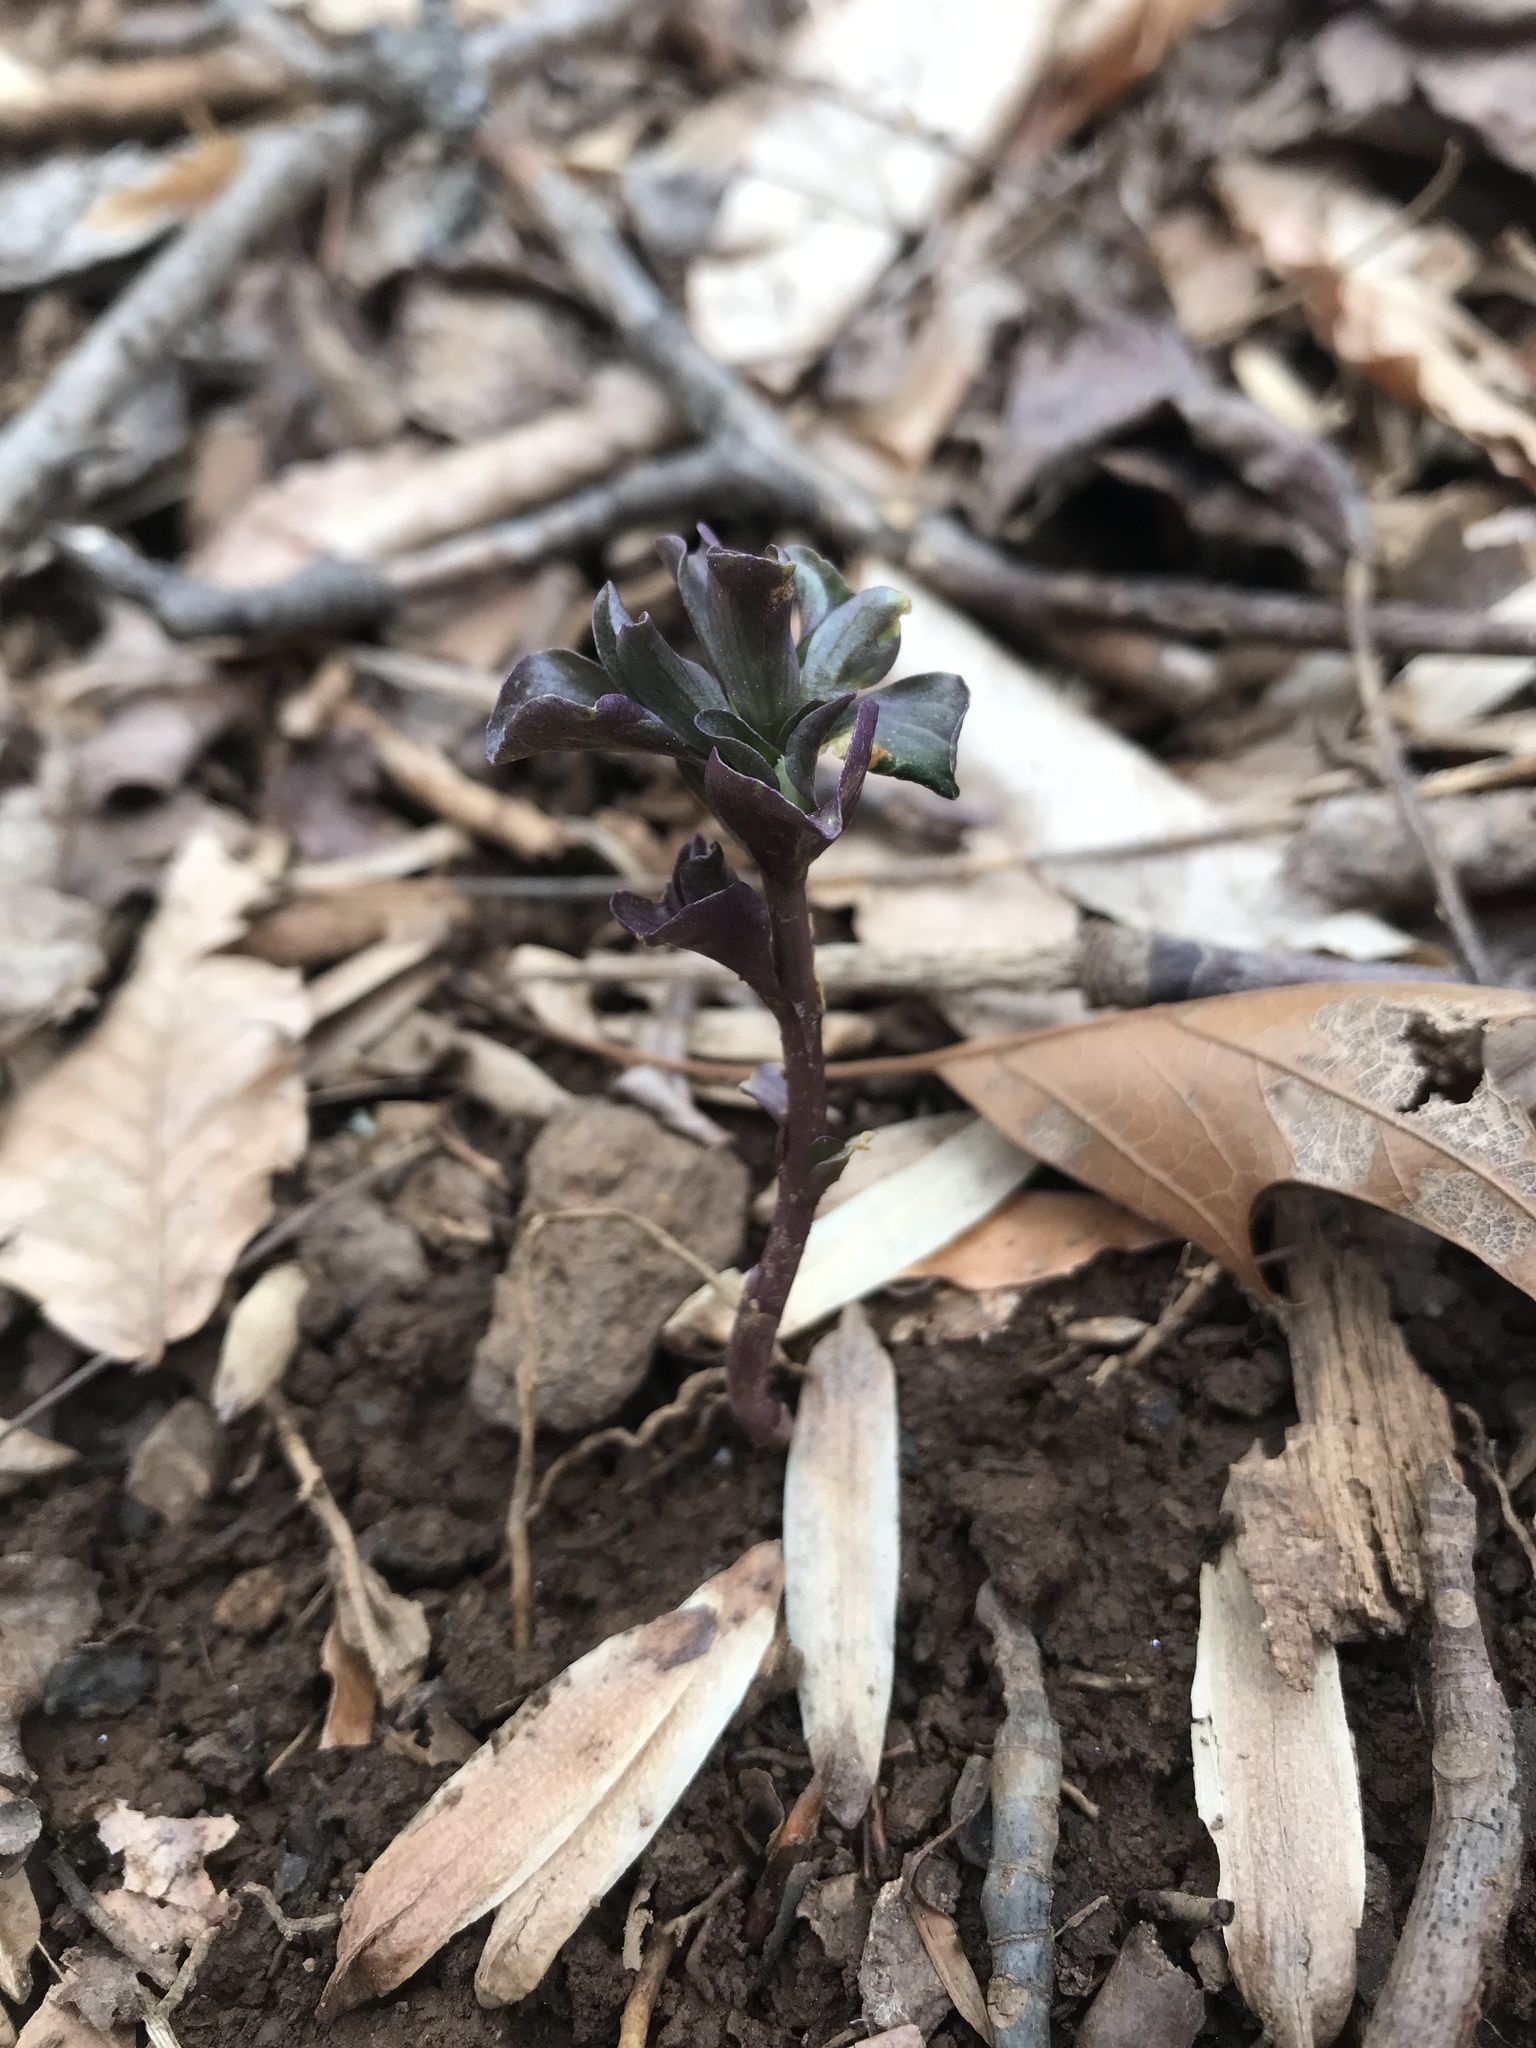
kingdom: Plantae
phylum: Tracheophyta
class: Magnoliopsida
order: Gentianales
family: Gentianaceae
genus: Obolaria
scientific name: Obolaria virginica
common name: Pennywort
